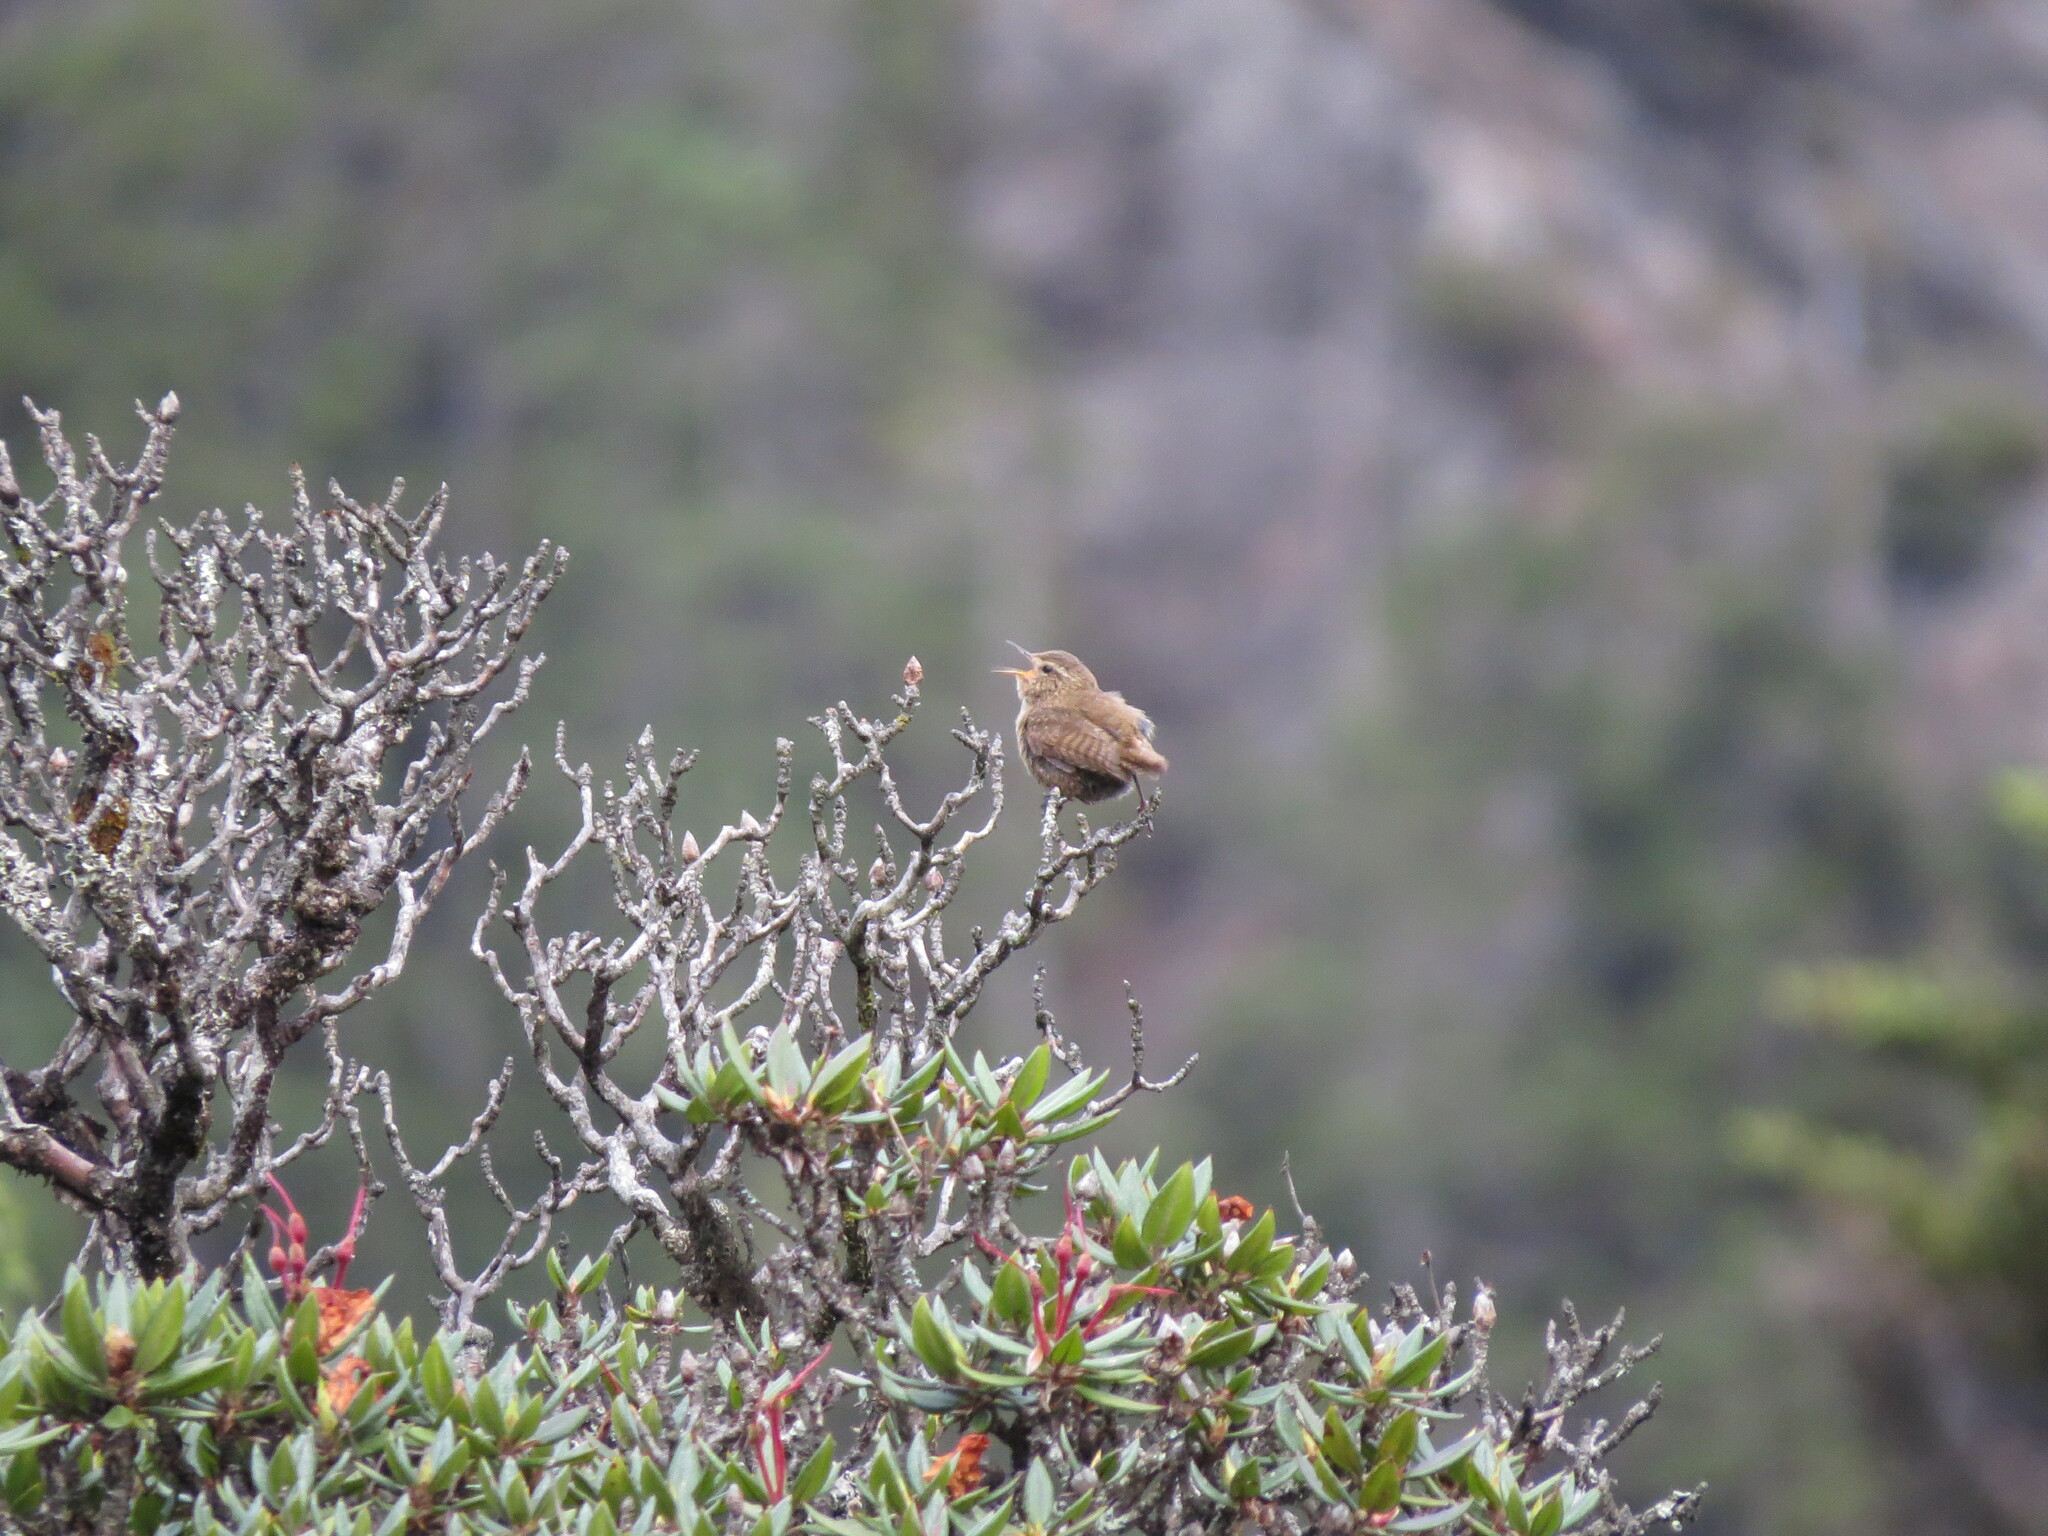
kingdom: Animalia
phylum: Chordata
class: Aves
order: Passeriformes
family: Troglodytidae
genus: Troglodytes
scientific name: Troglodytes troglodytes
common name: Eurasian wren
